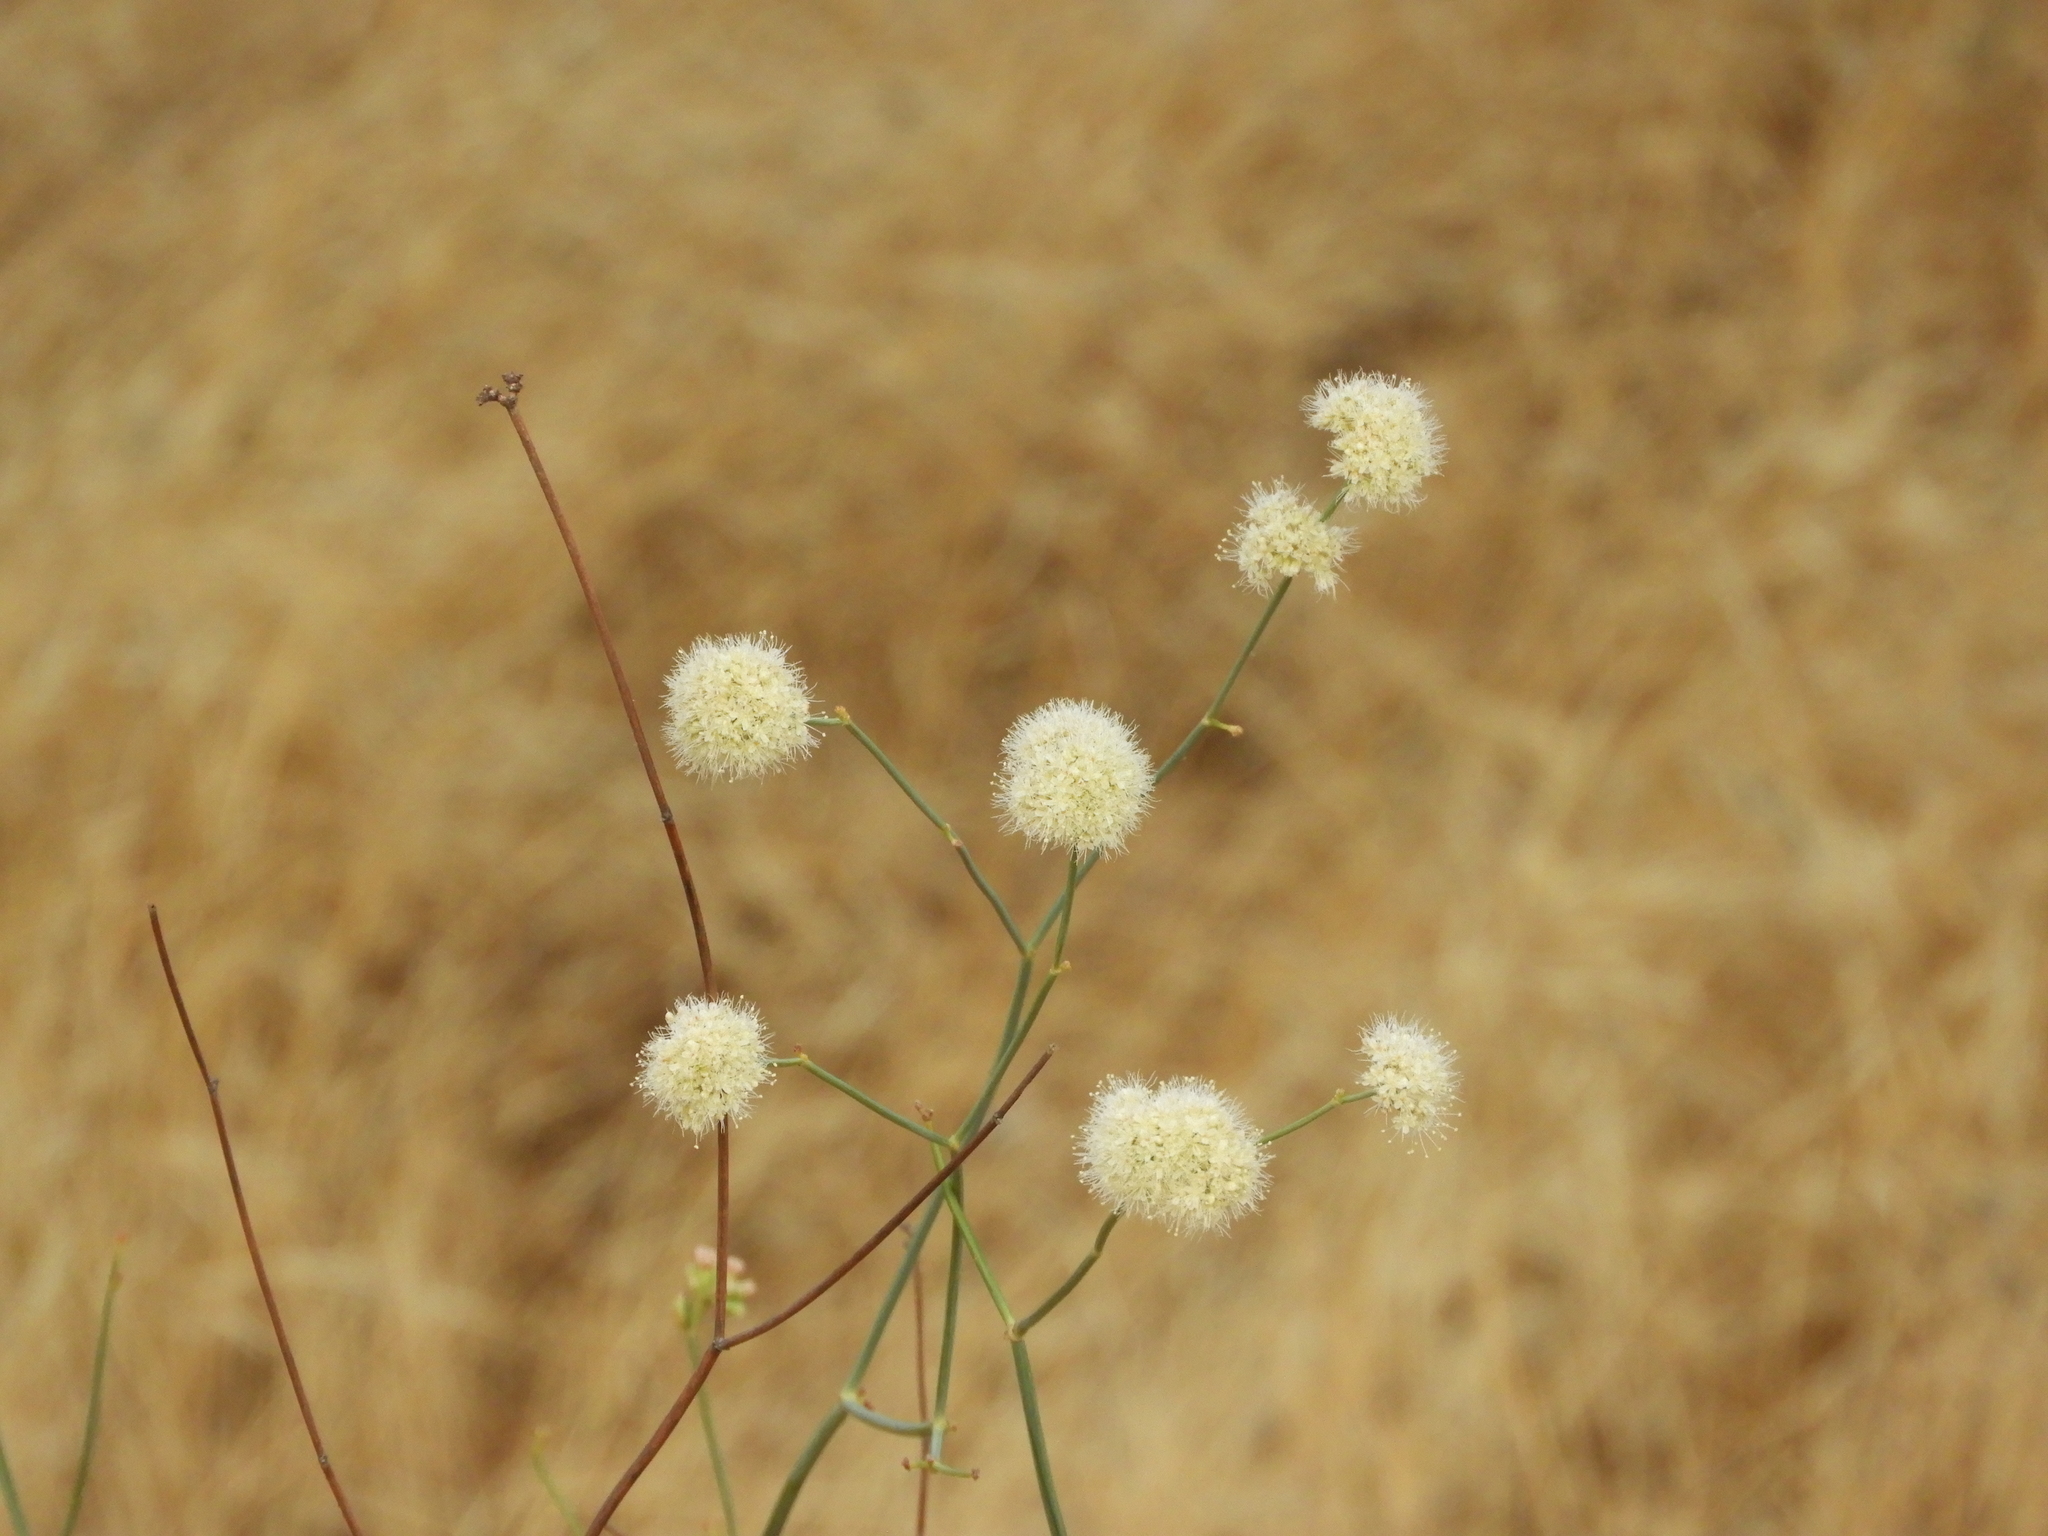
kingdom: Plantae
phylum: Tracheophyta
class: Magnoliopsida
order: Caryophyllales
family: Polygonaceae
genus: Eriogonum
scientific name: Eriogonum nudum
